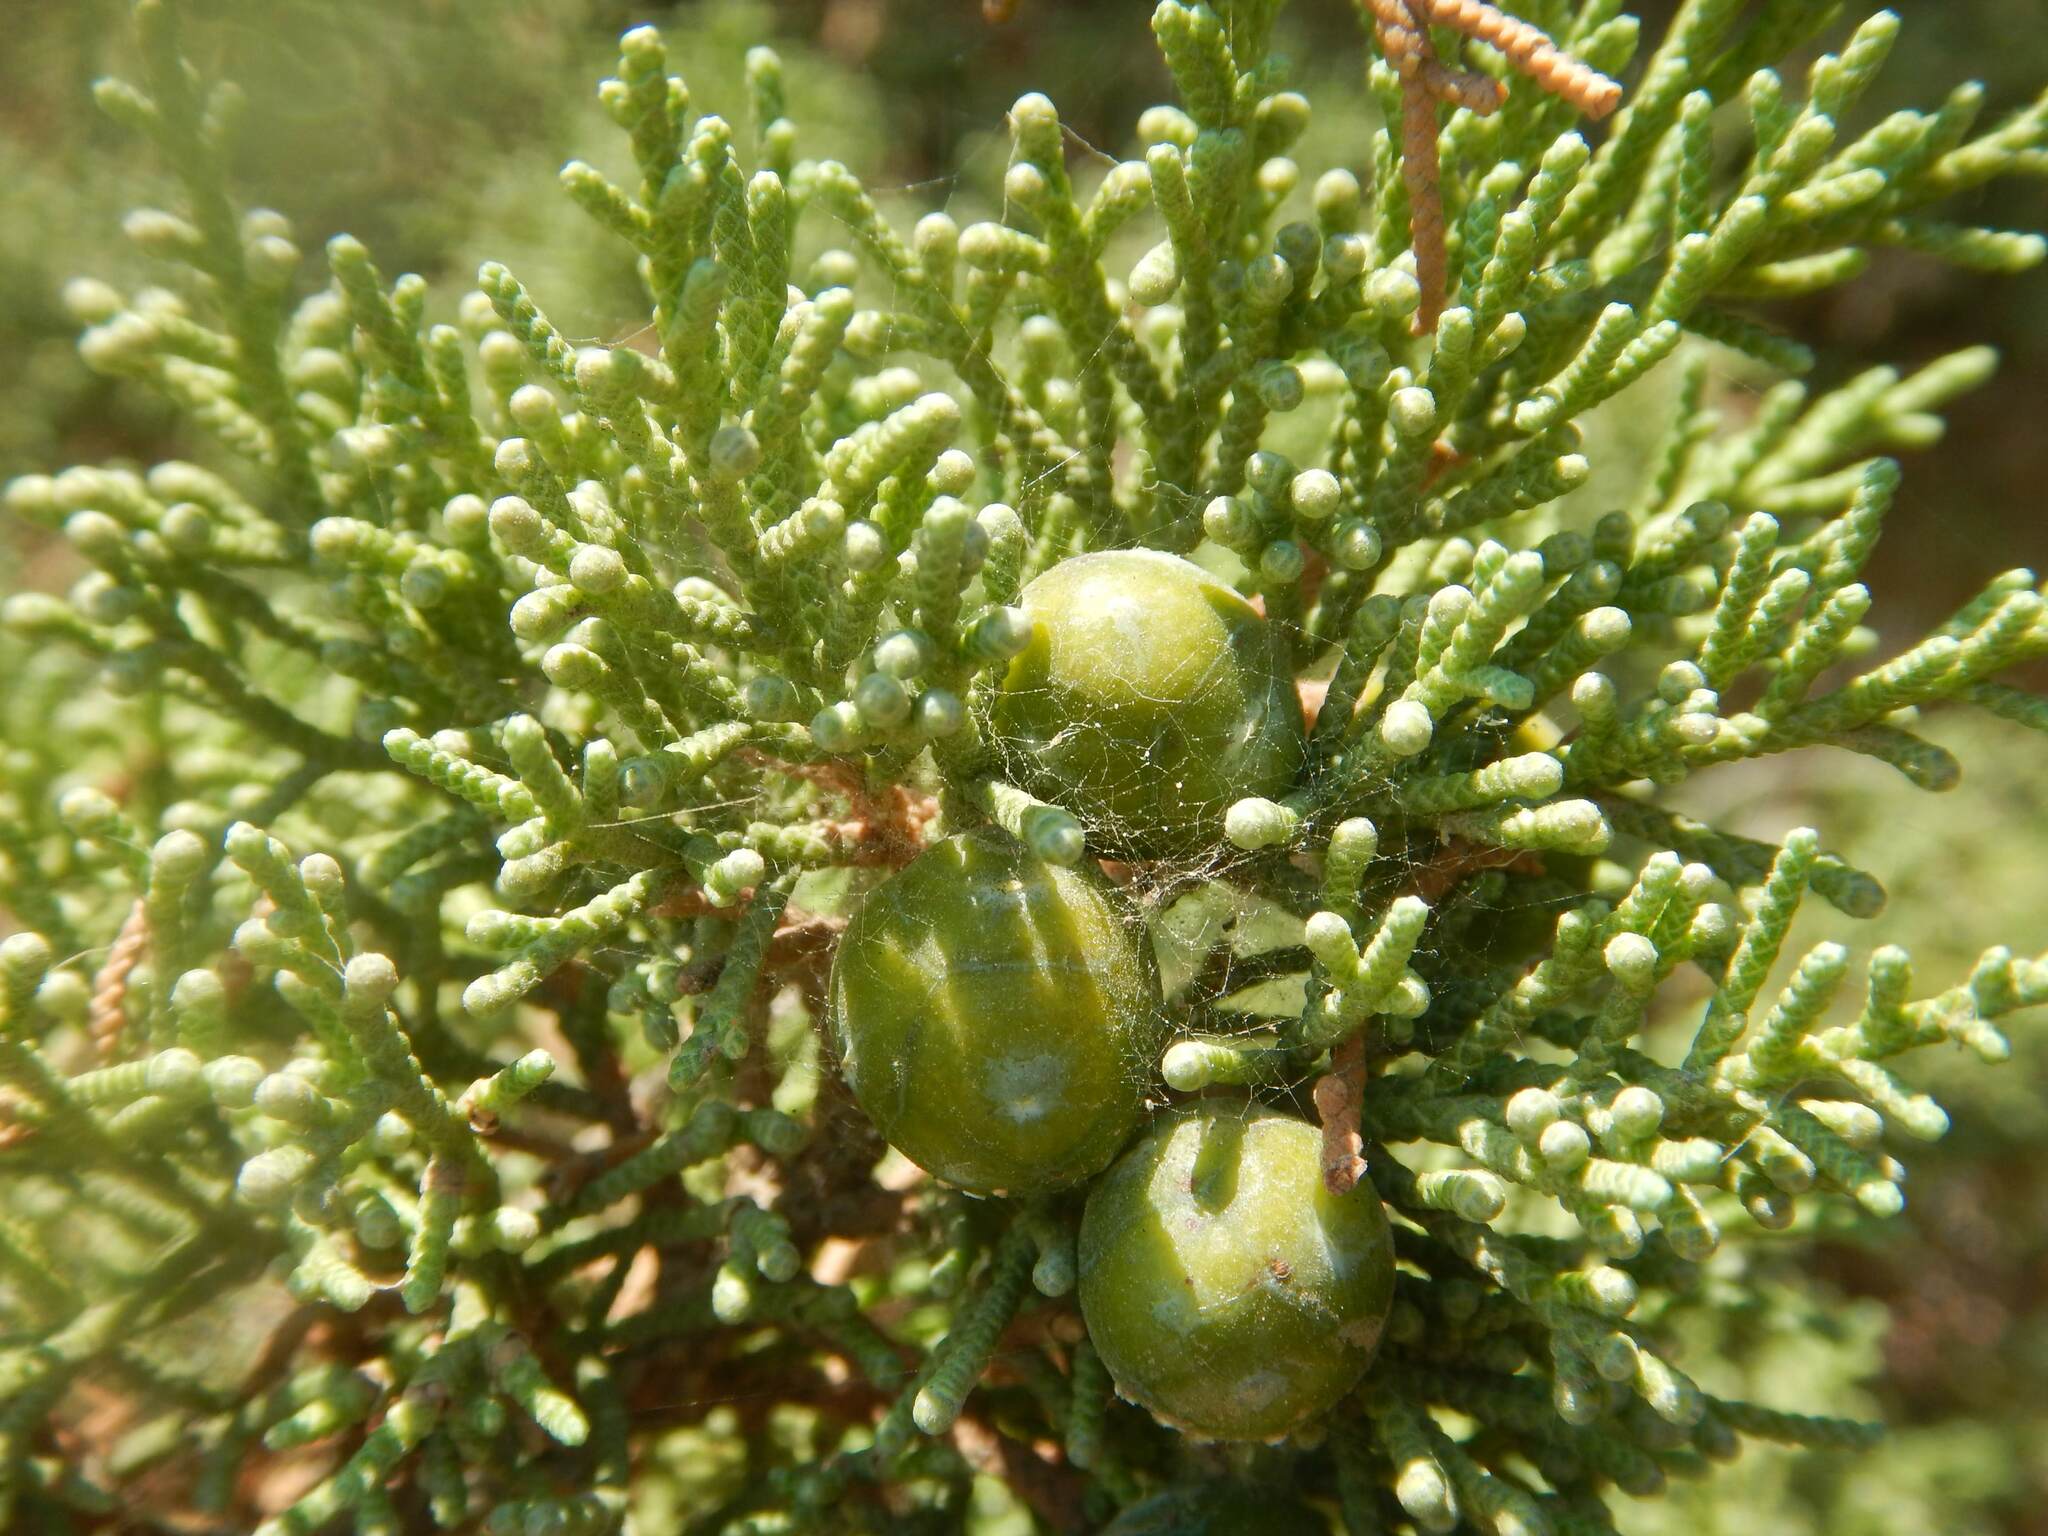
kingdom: Plantae
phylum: Tracheophyta
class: Pinopsida
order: Pinales
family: Cupressaceae
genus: Juniperus
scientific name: Juniperus phoenicea
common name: Phoenician juniper
